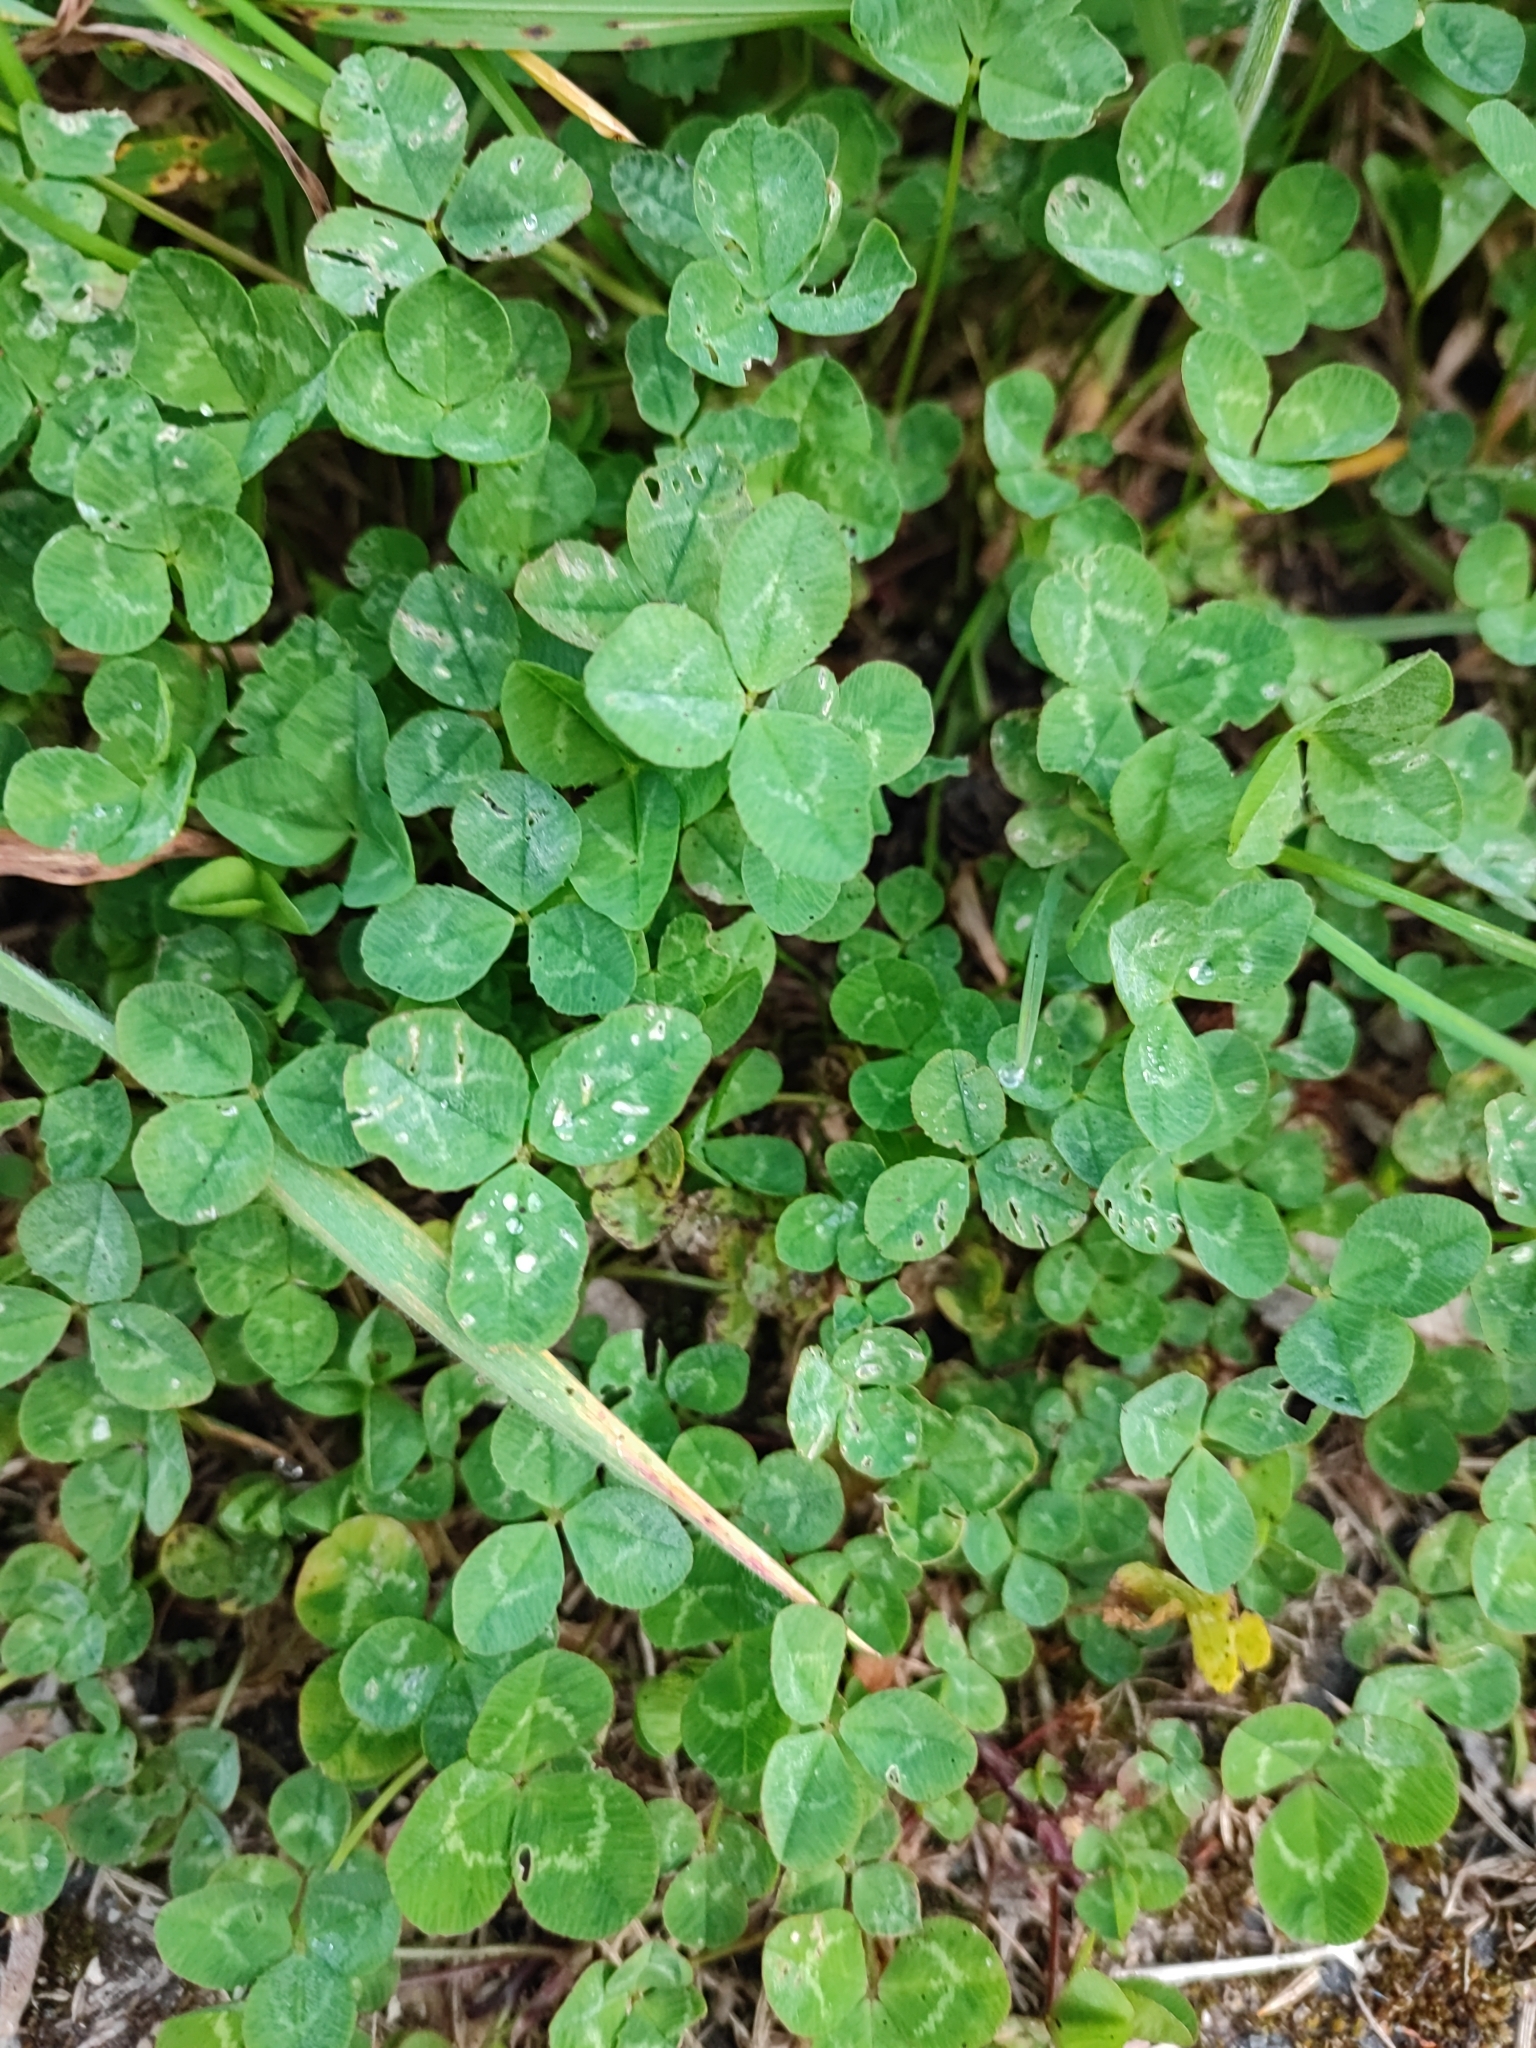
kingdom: Plantae
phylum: Tracheophyta
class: Magnoliopsida
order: Fabales
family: Fabaceae
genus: Trifolium
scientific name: Trifolium repens
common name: White clover
